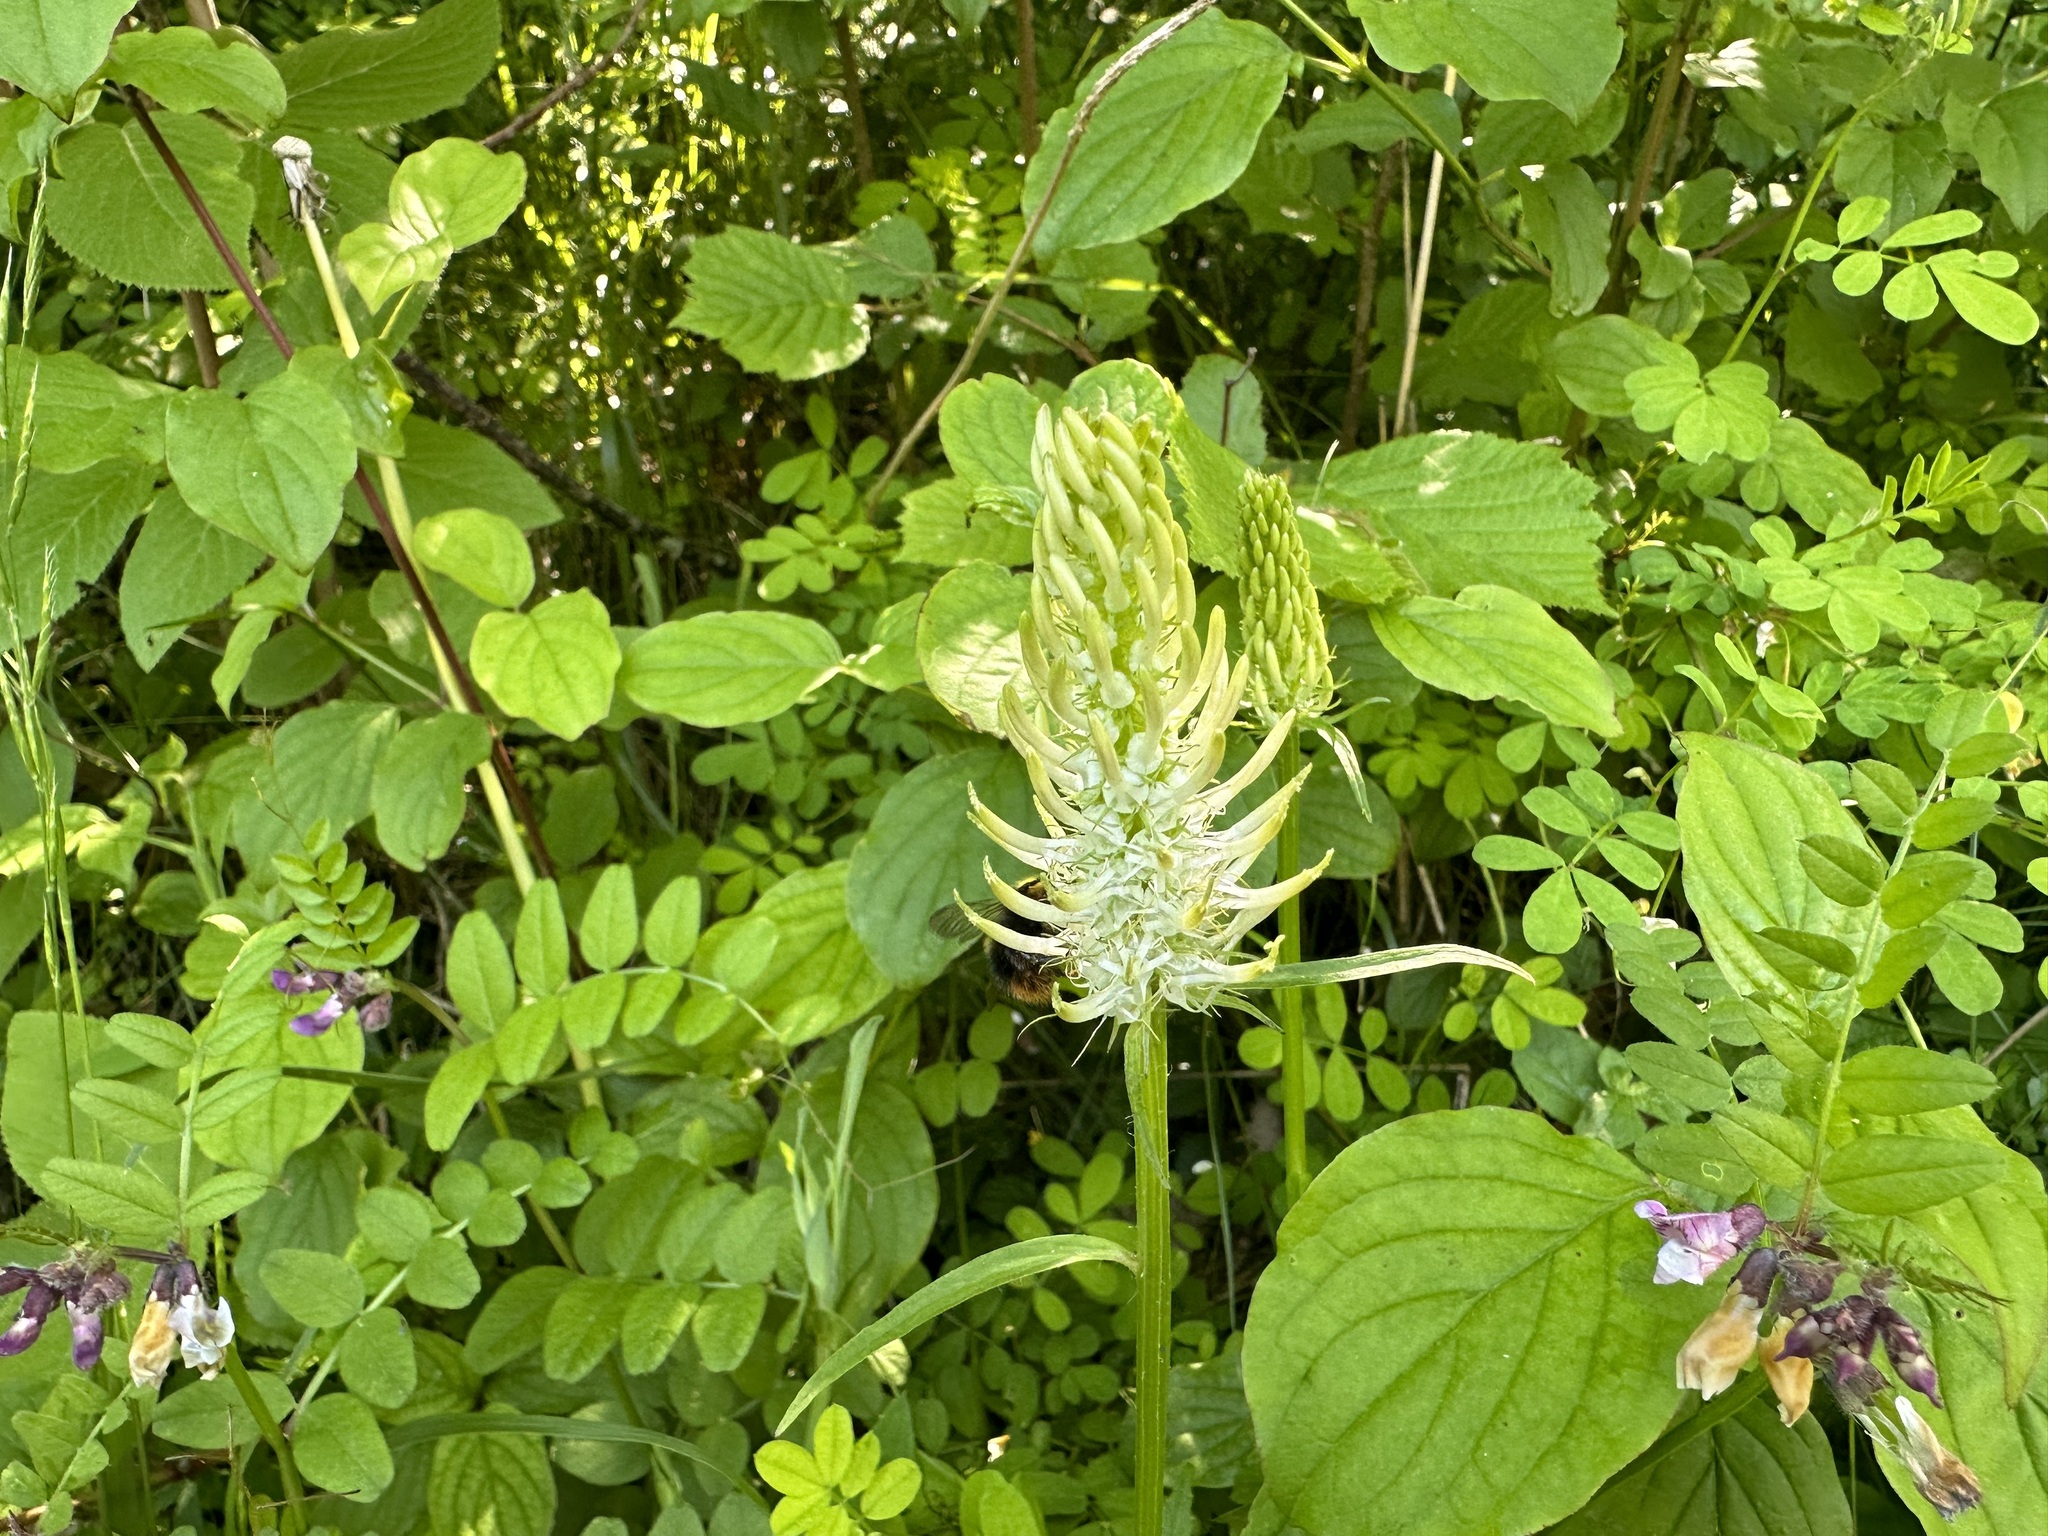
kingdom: Plantae
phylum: Tracheophyta
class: Magnoliopsida
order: Asterales
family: Campanulaceae
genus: Phyteuma
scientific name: Phyteuma spicatum
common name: Spiked rampion
